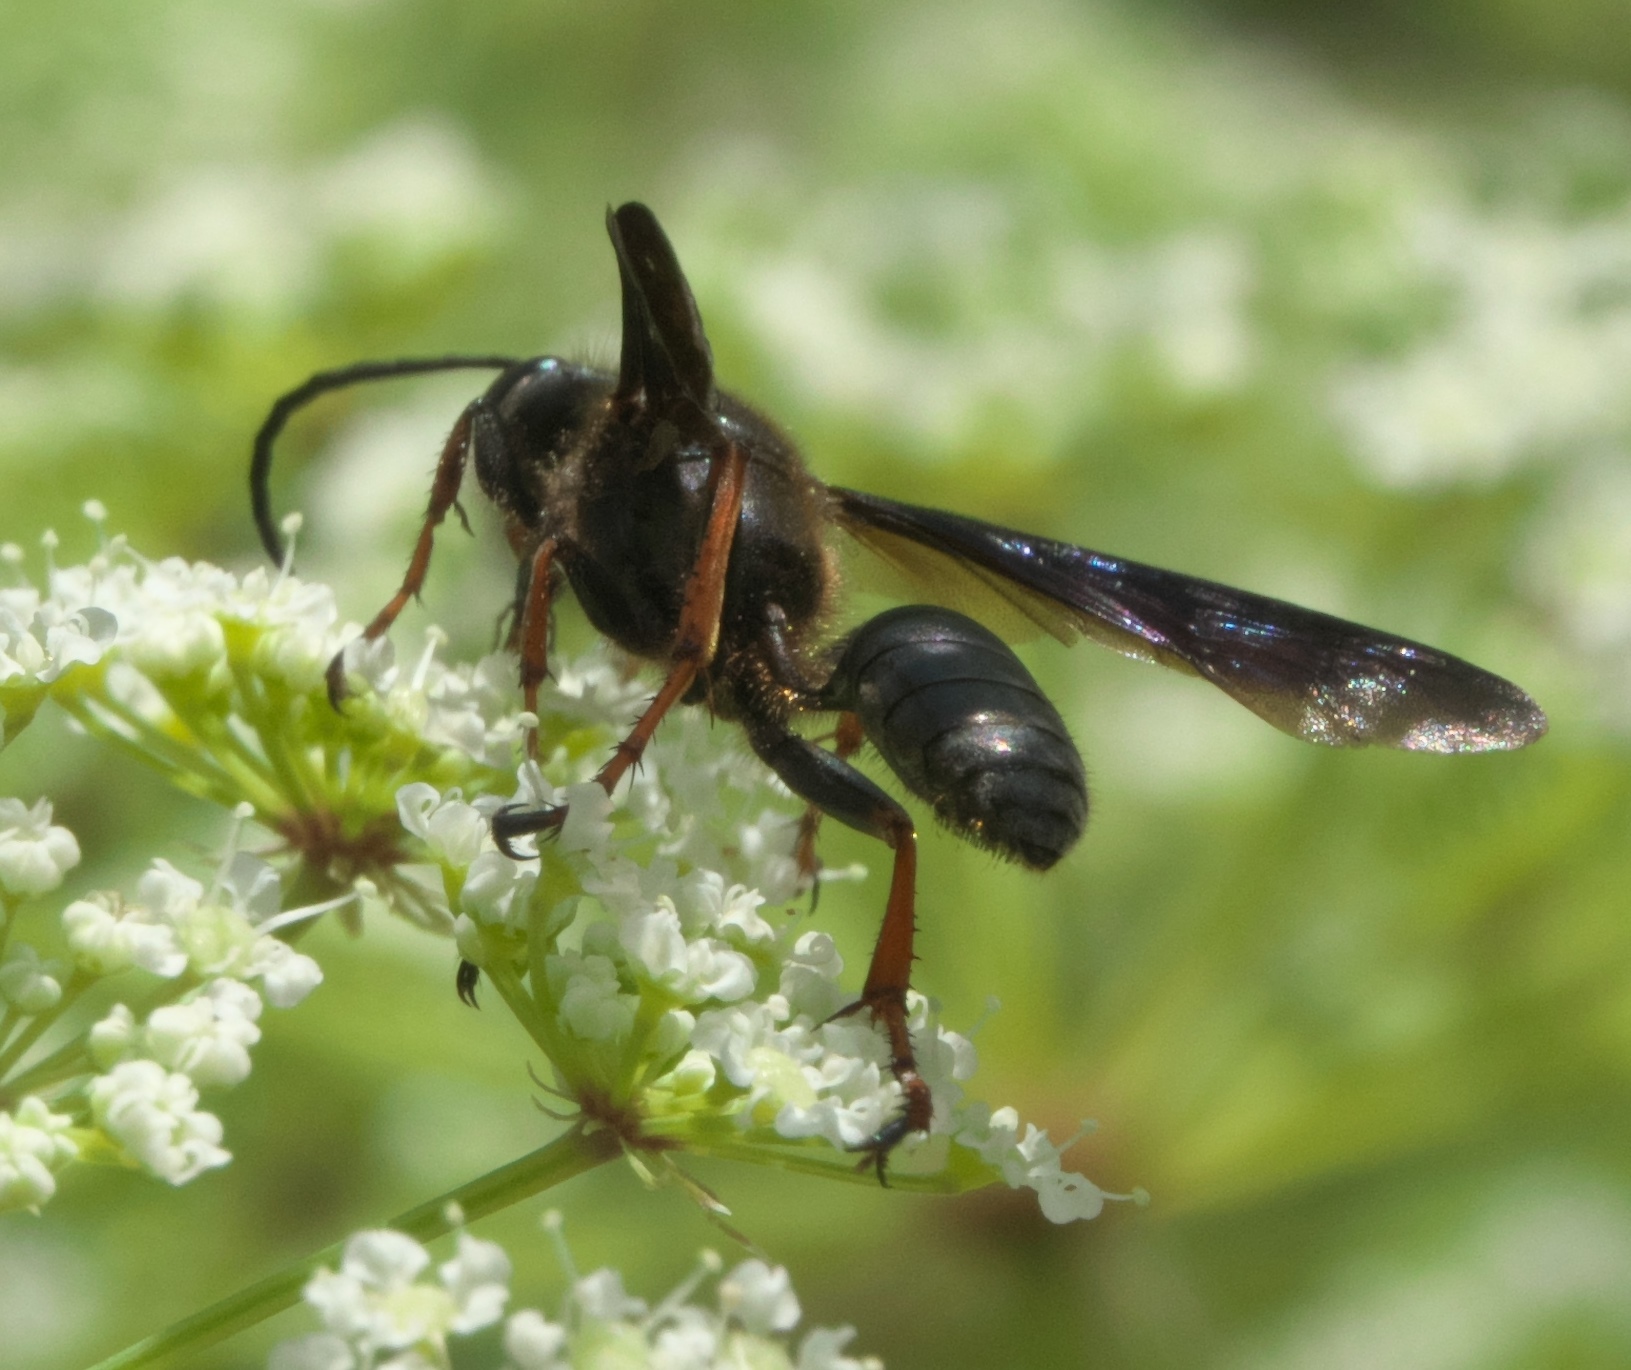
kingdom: Animalia
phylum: Arthropoda
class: Insecta
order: Hymenoptera
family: Sphecidae
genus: Isodontia
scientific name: Isodontia auripes
